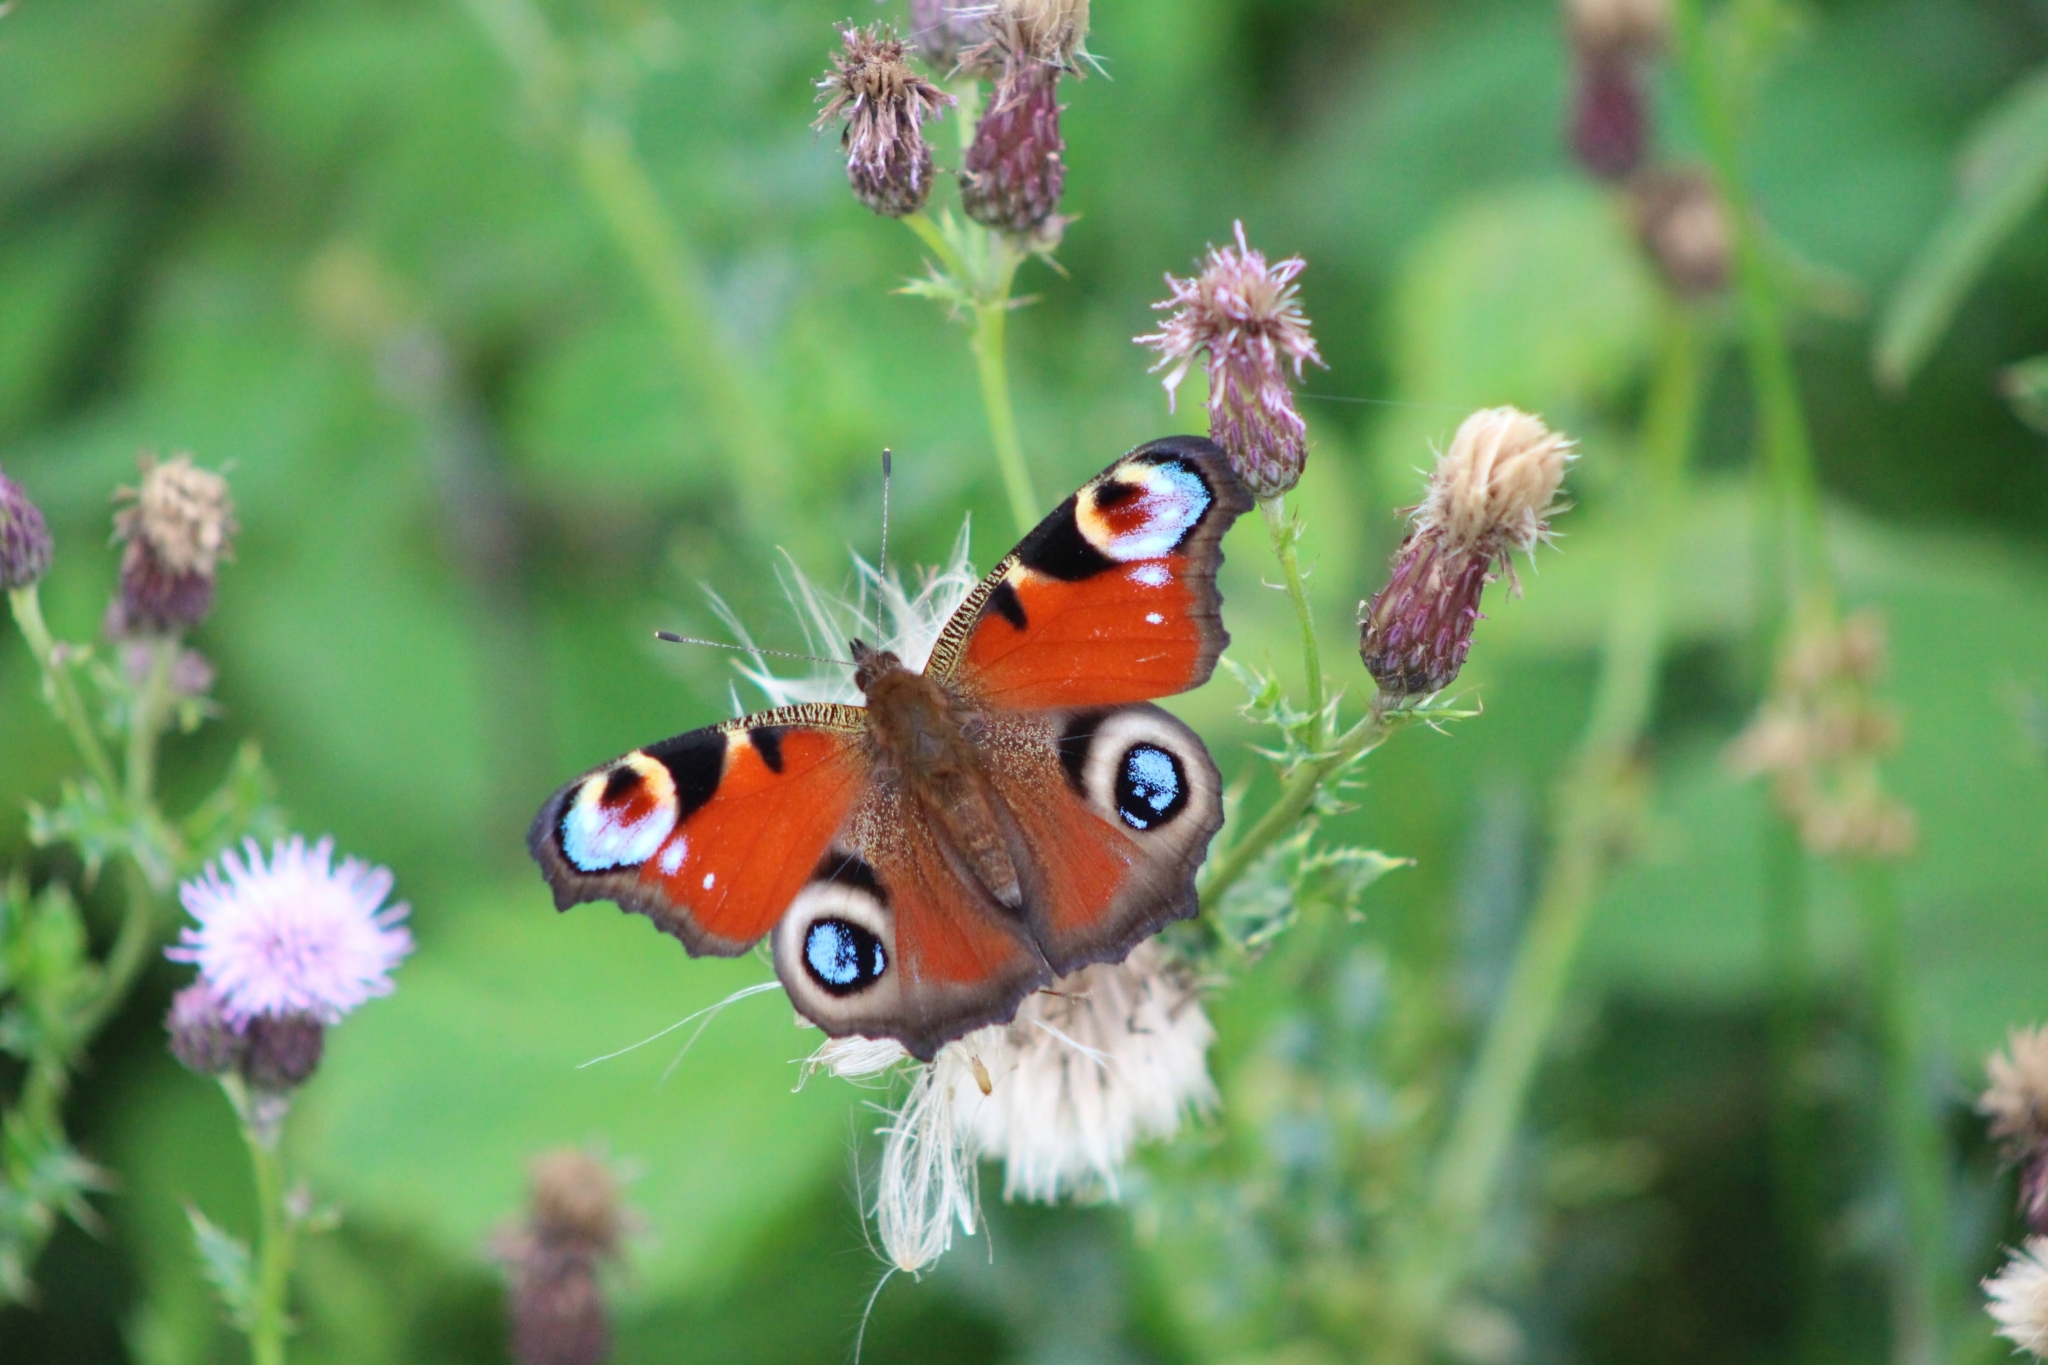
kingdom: Animalia
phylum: Arthropoda
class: Insecta
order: Lepidoptera
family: Nymphalidae
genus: Aglais
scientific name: Aglais io
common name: Peacock
